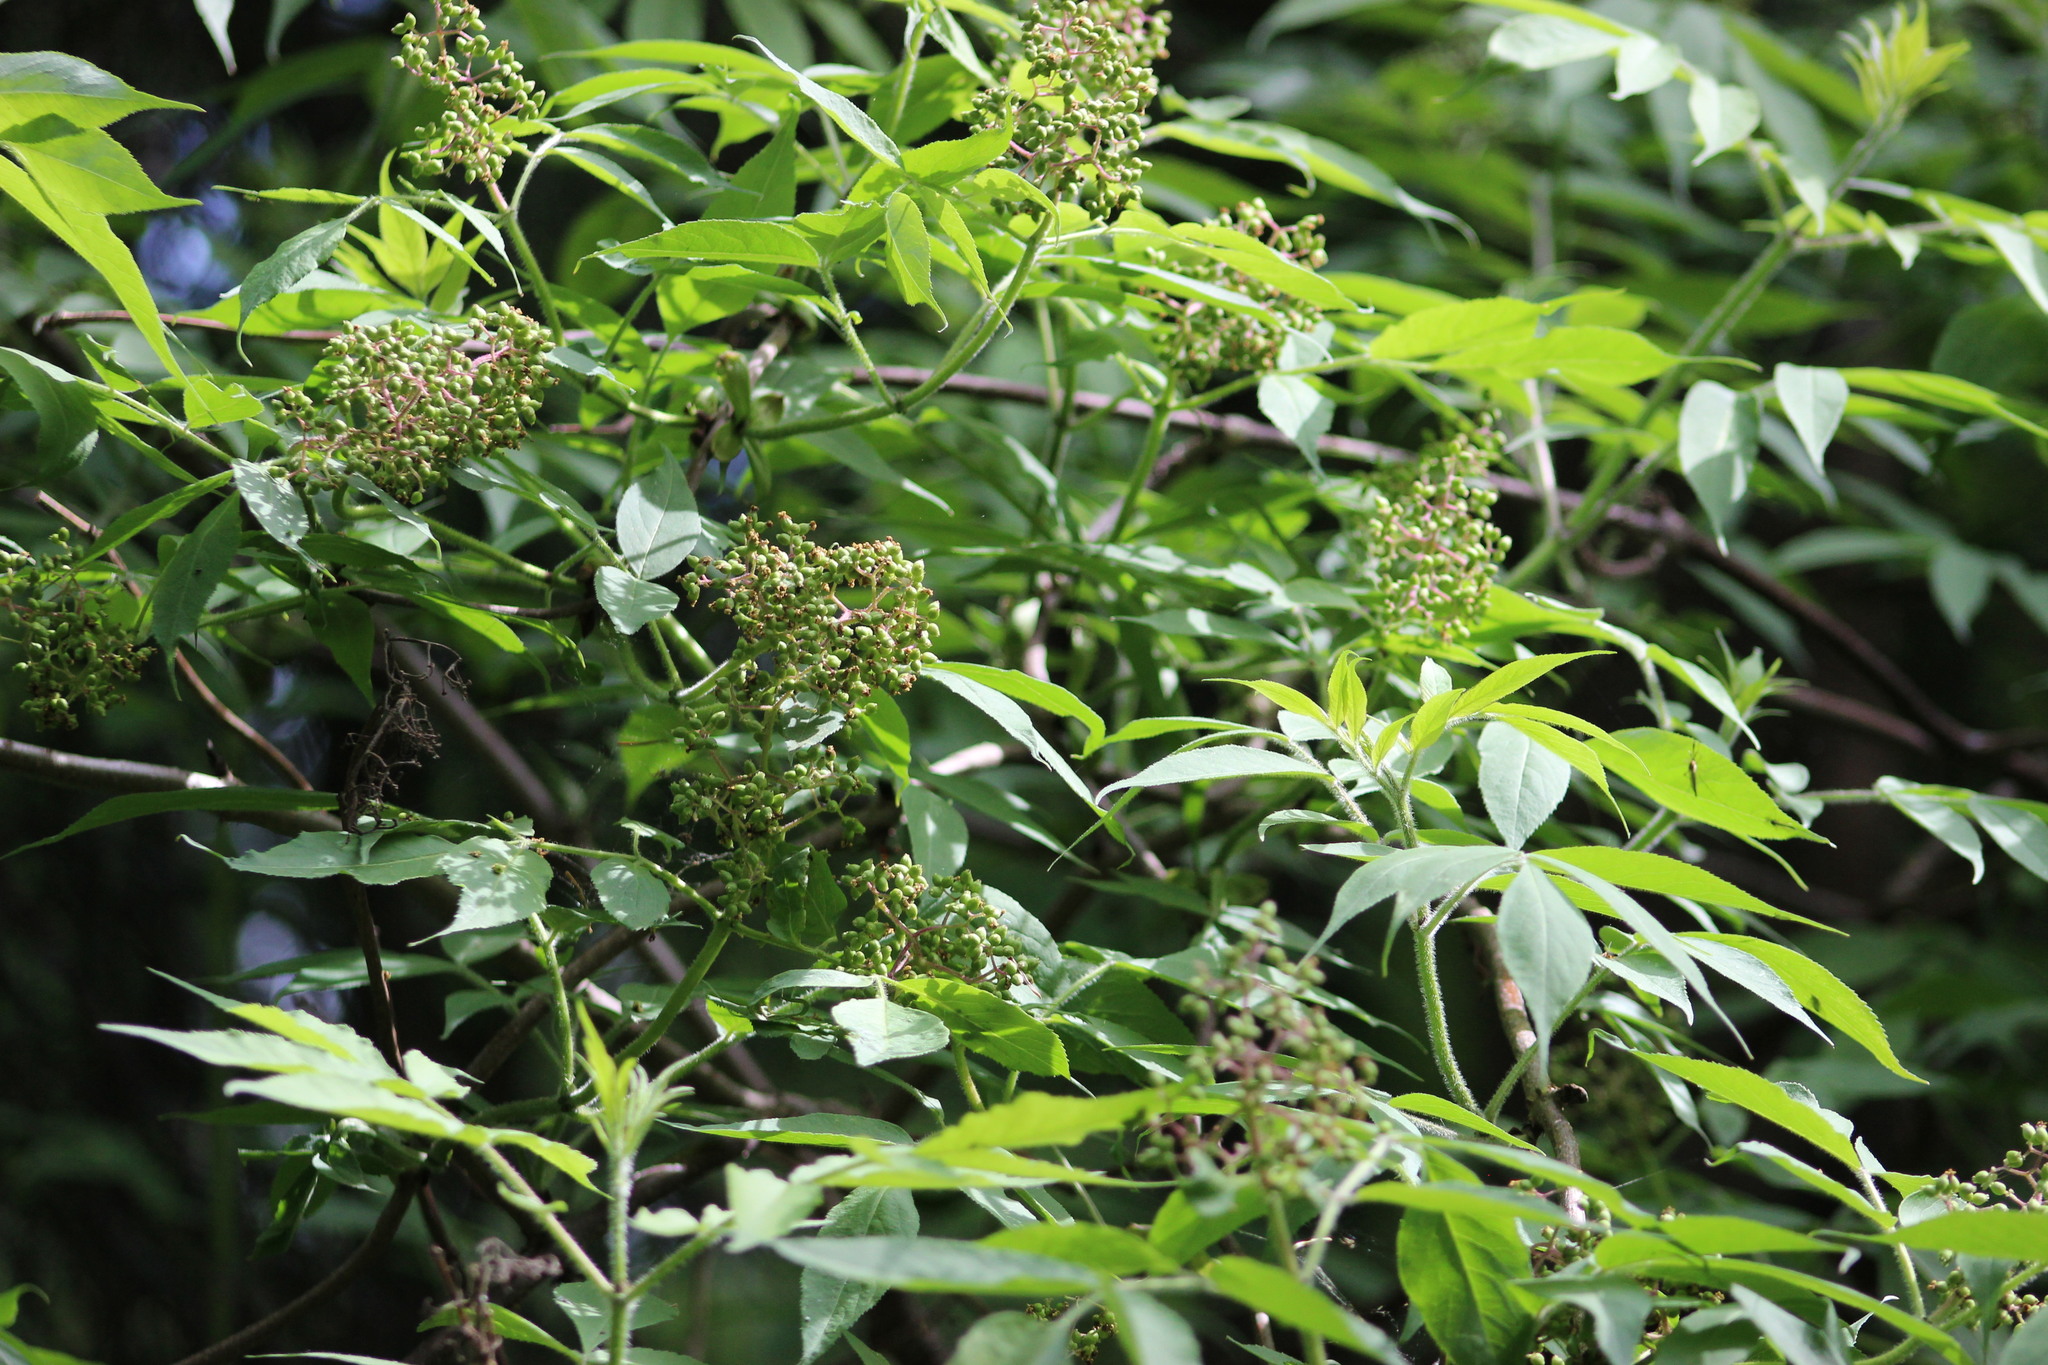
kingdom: Plantae
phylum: Tracheophyta
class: Magnoliopsida
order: Dipsacales
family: Viburnaceae
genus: Sambucus
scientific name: Sambucus sibirica
